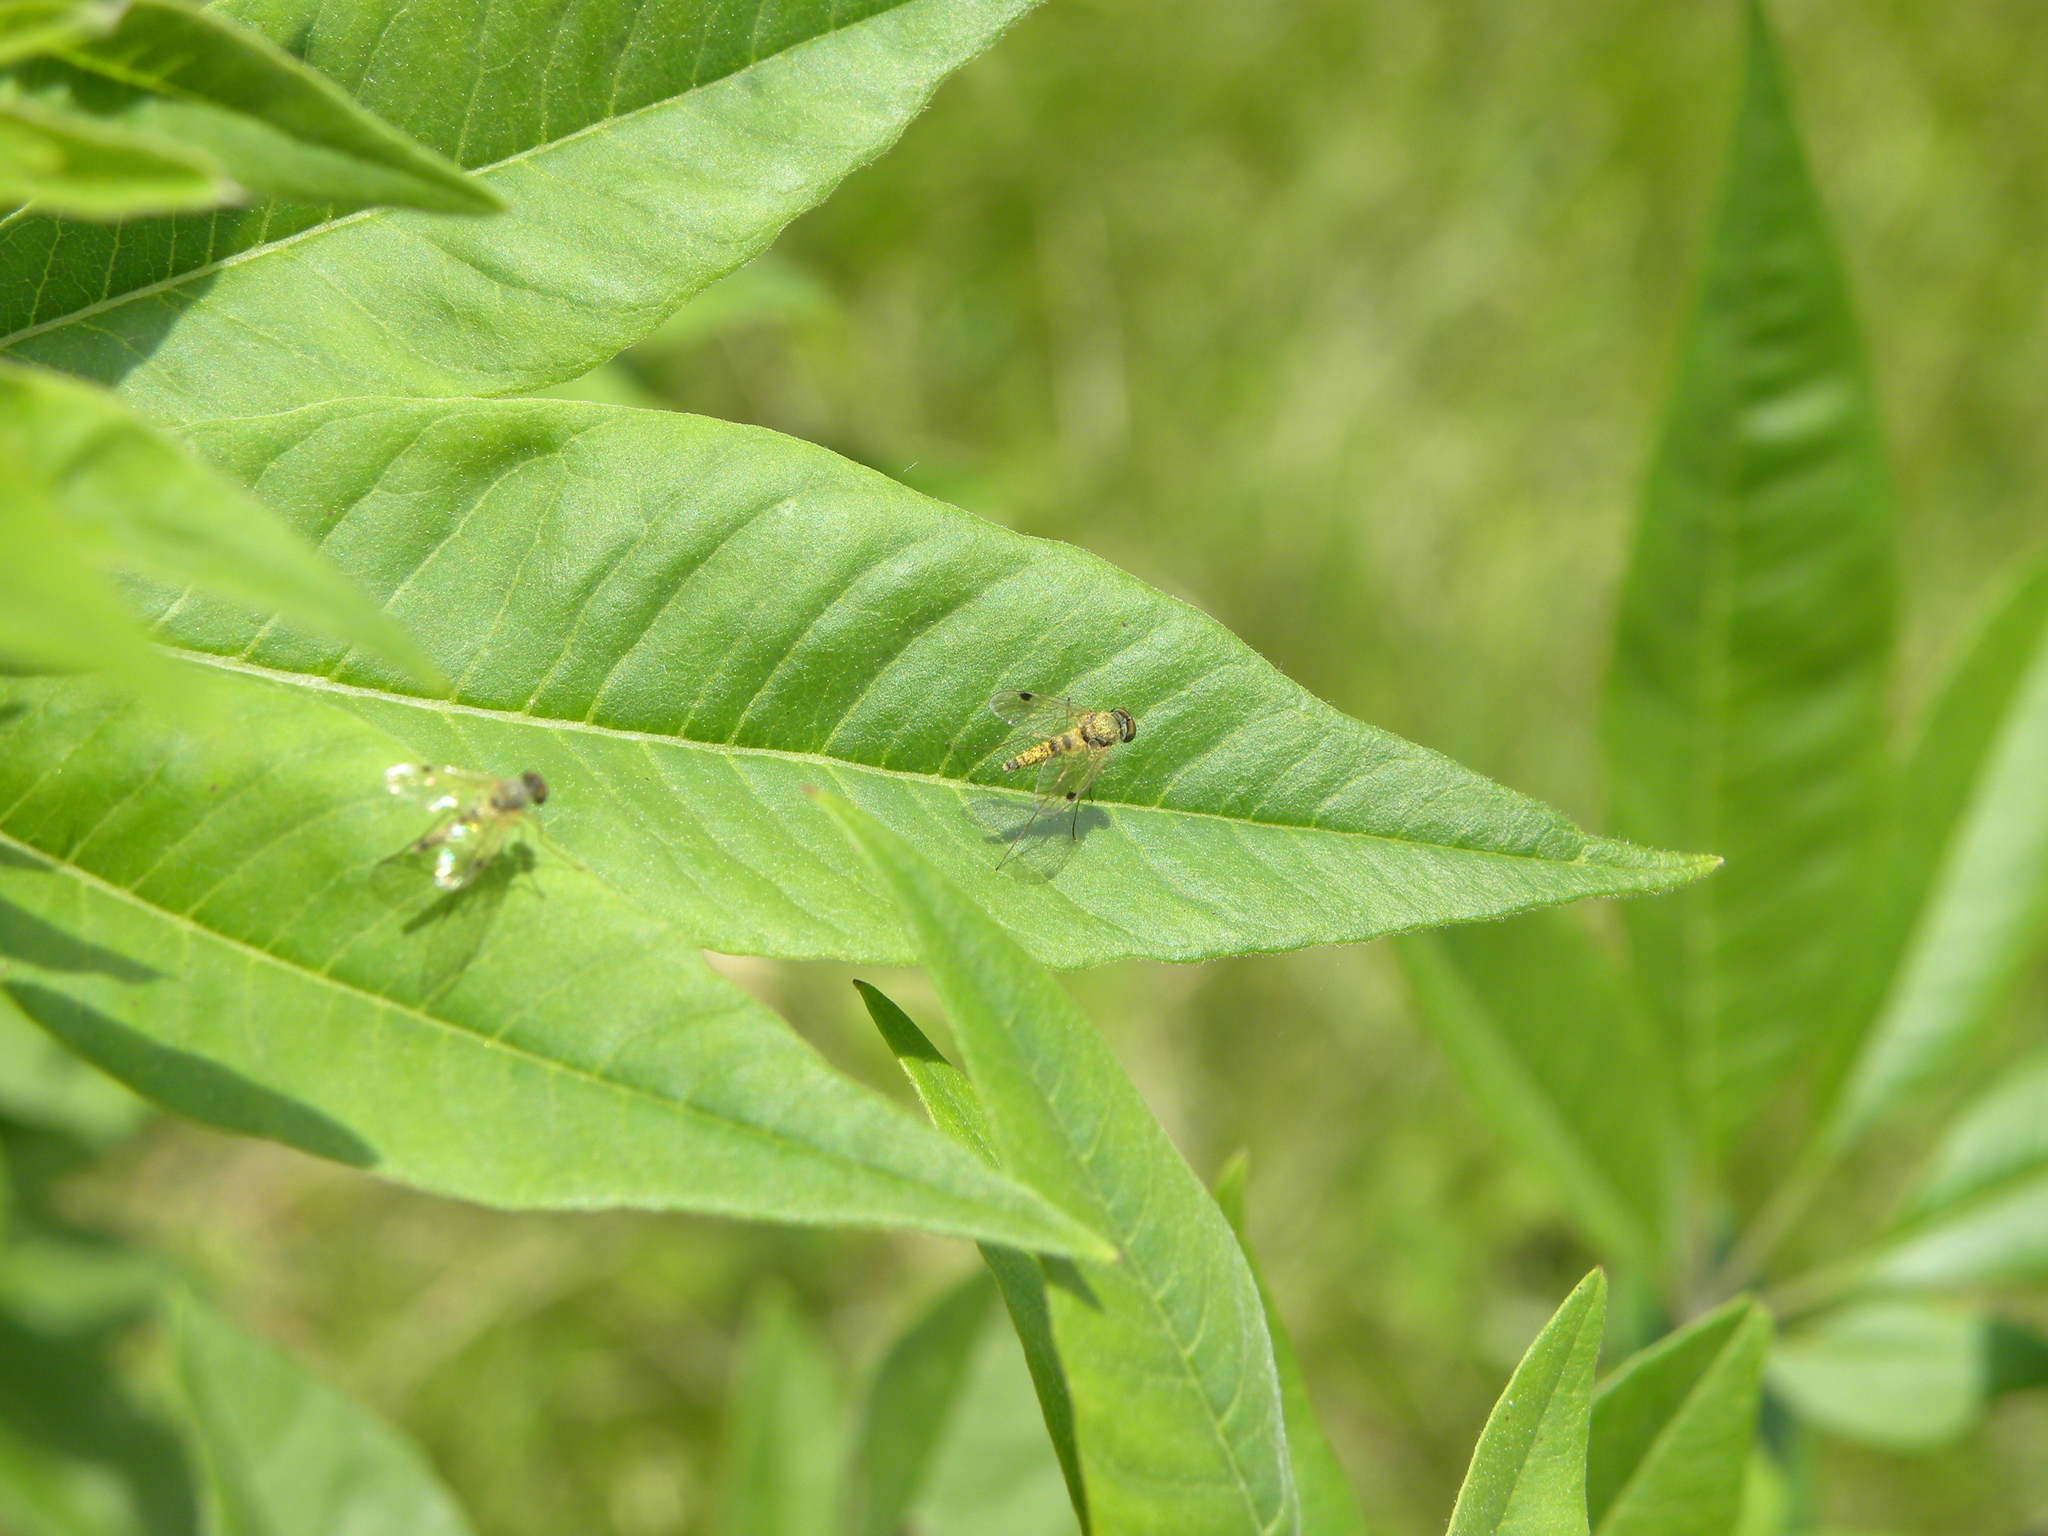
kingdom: Animalia
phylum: Arthropoda
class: Insecta
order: Diptera
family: Rhagionidae
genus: Chrysopilus
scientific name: Chrysopilus modestus
